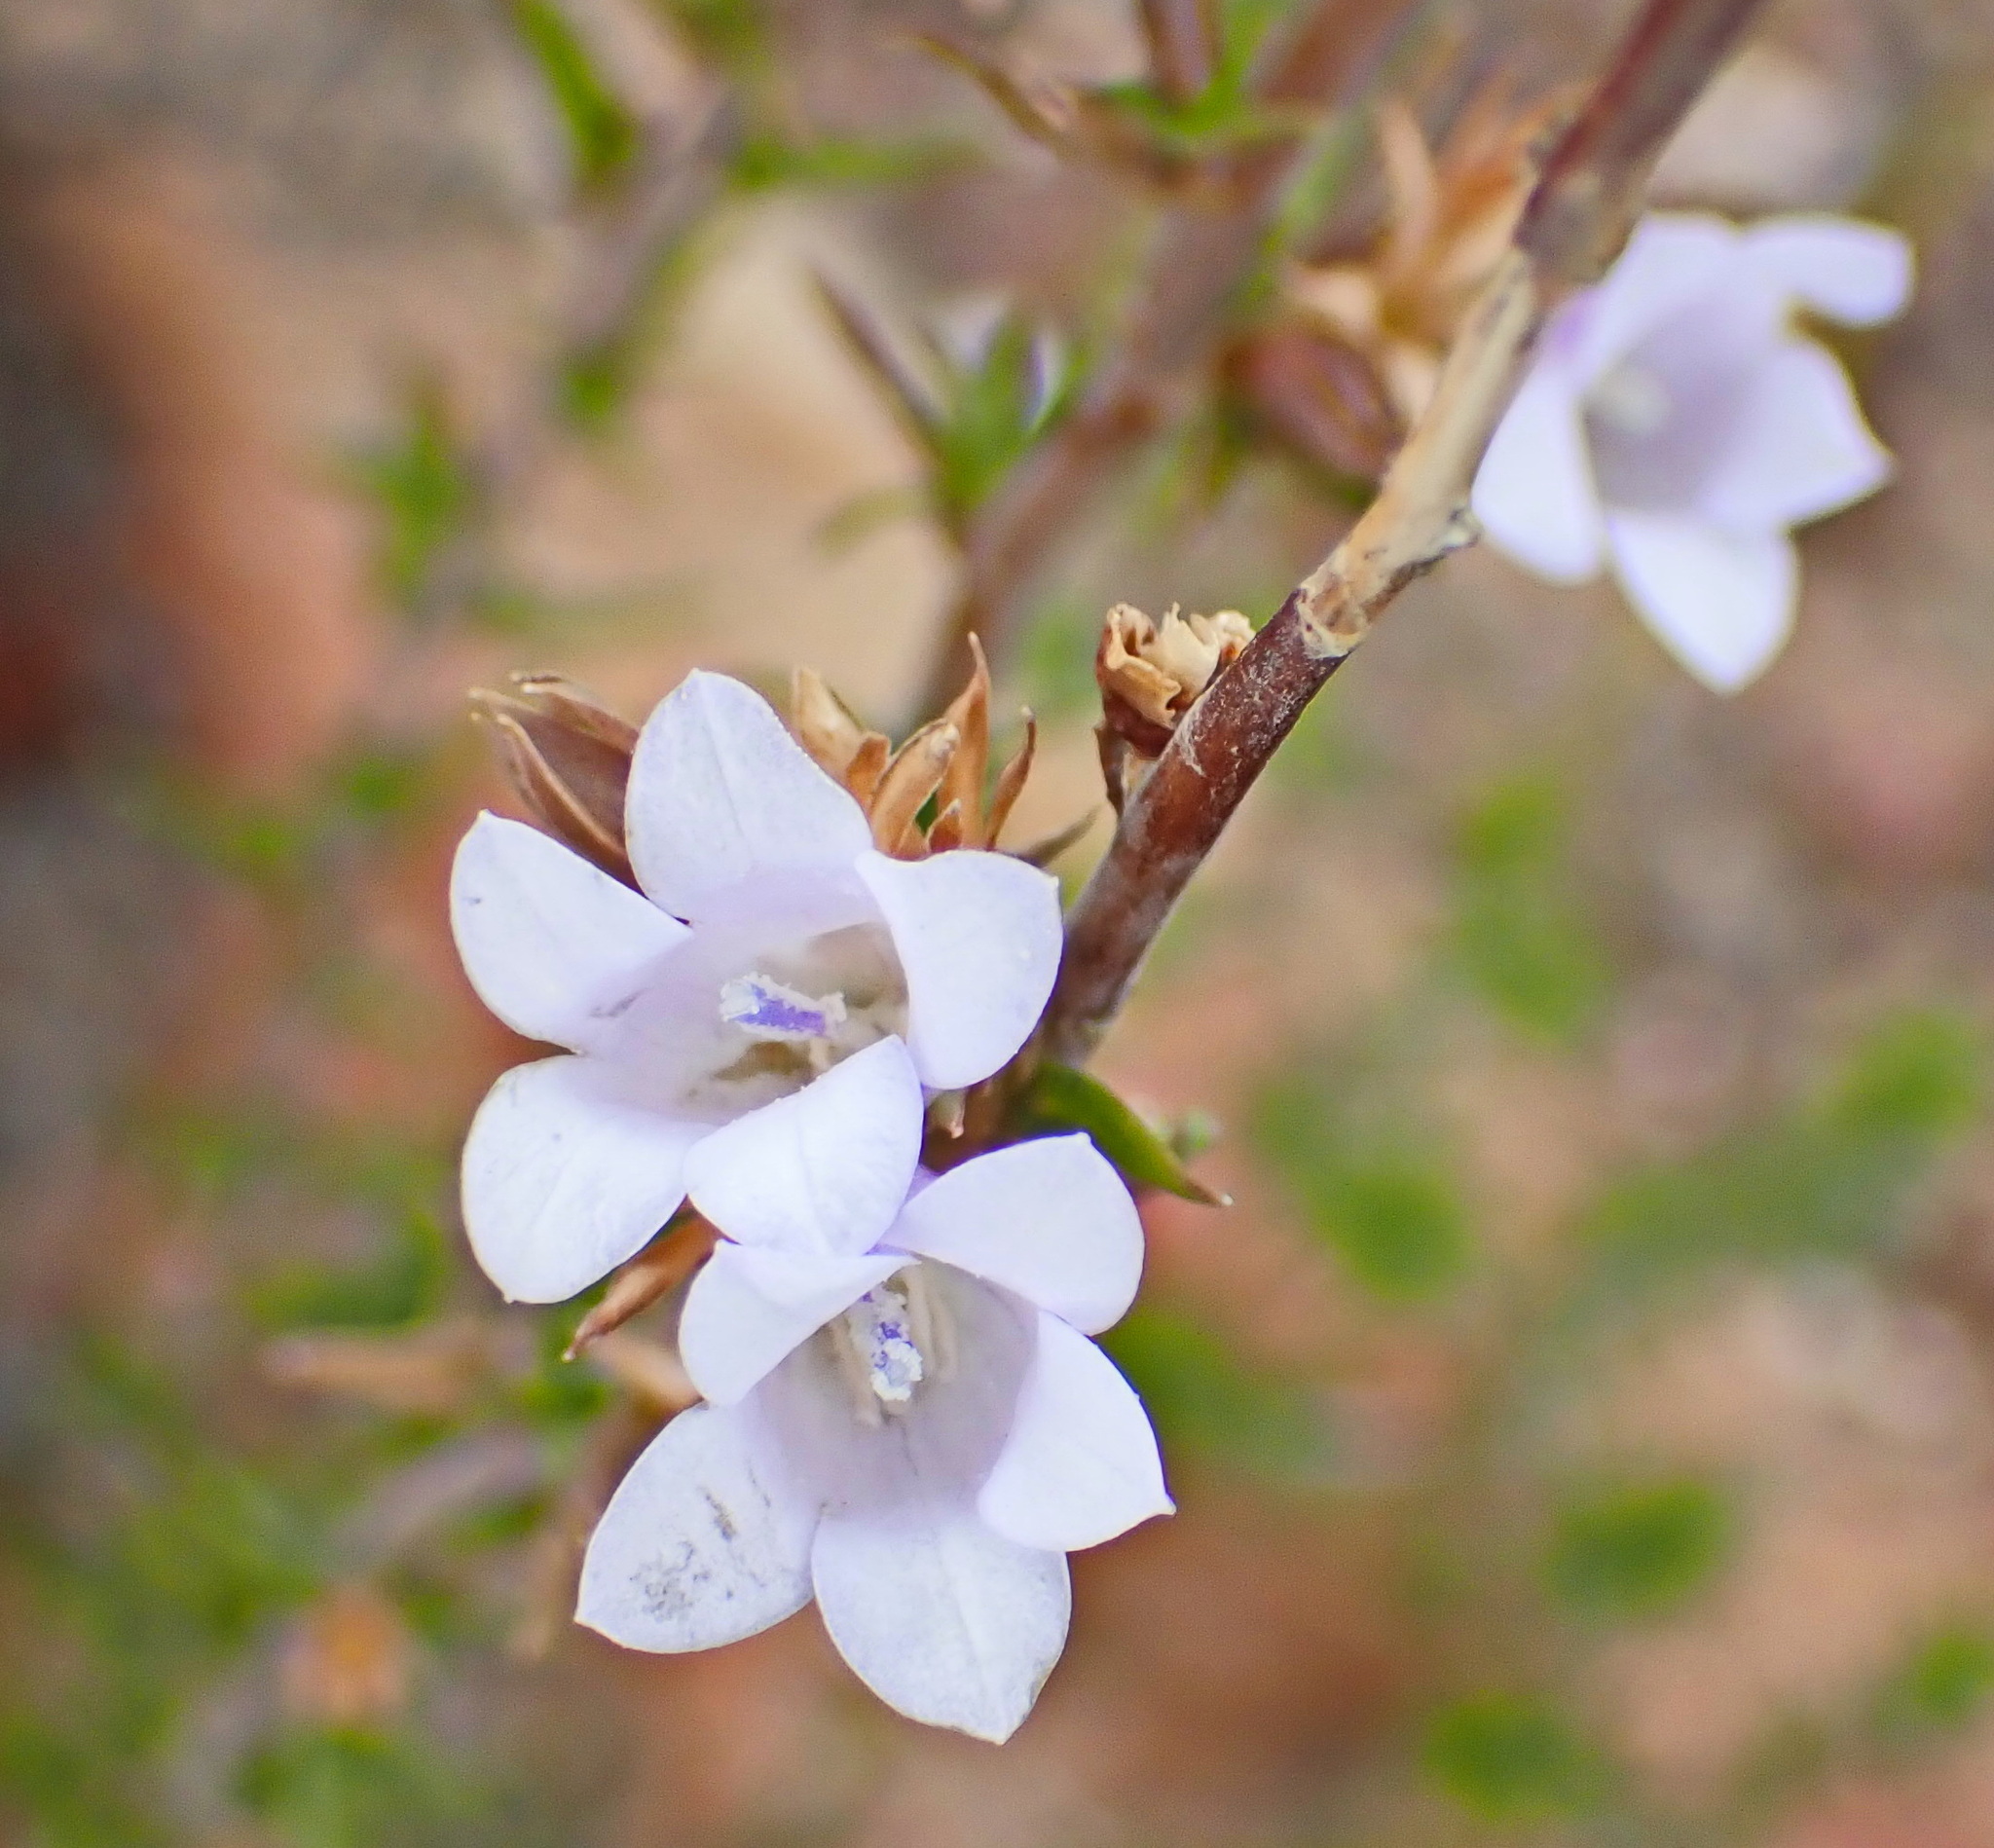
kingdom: Plantae
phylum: Tracheophyta
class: Magnoliopsida
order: Asterales
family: Campanulaceae
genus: Prismatocarpus
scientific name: Prismatocarpus candolleanus
